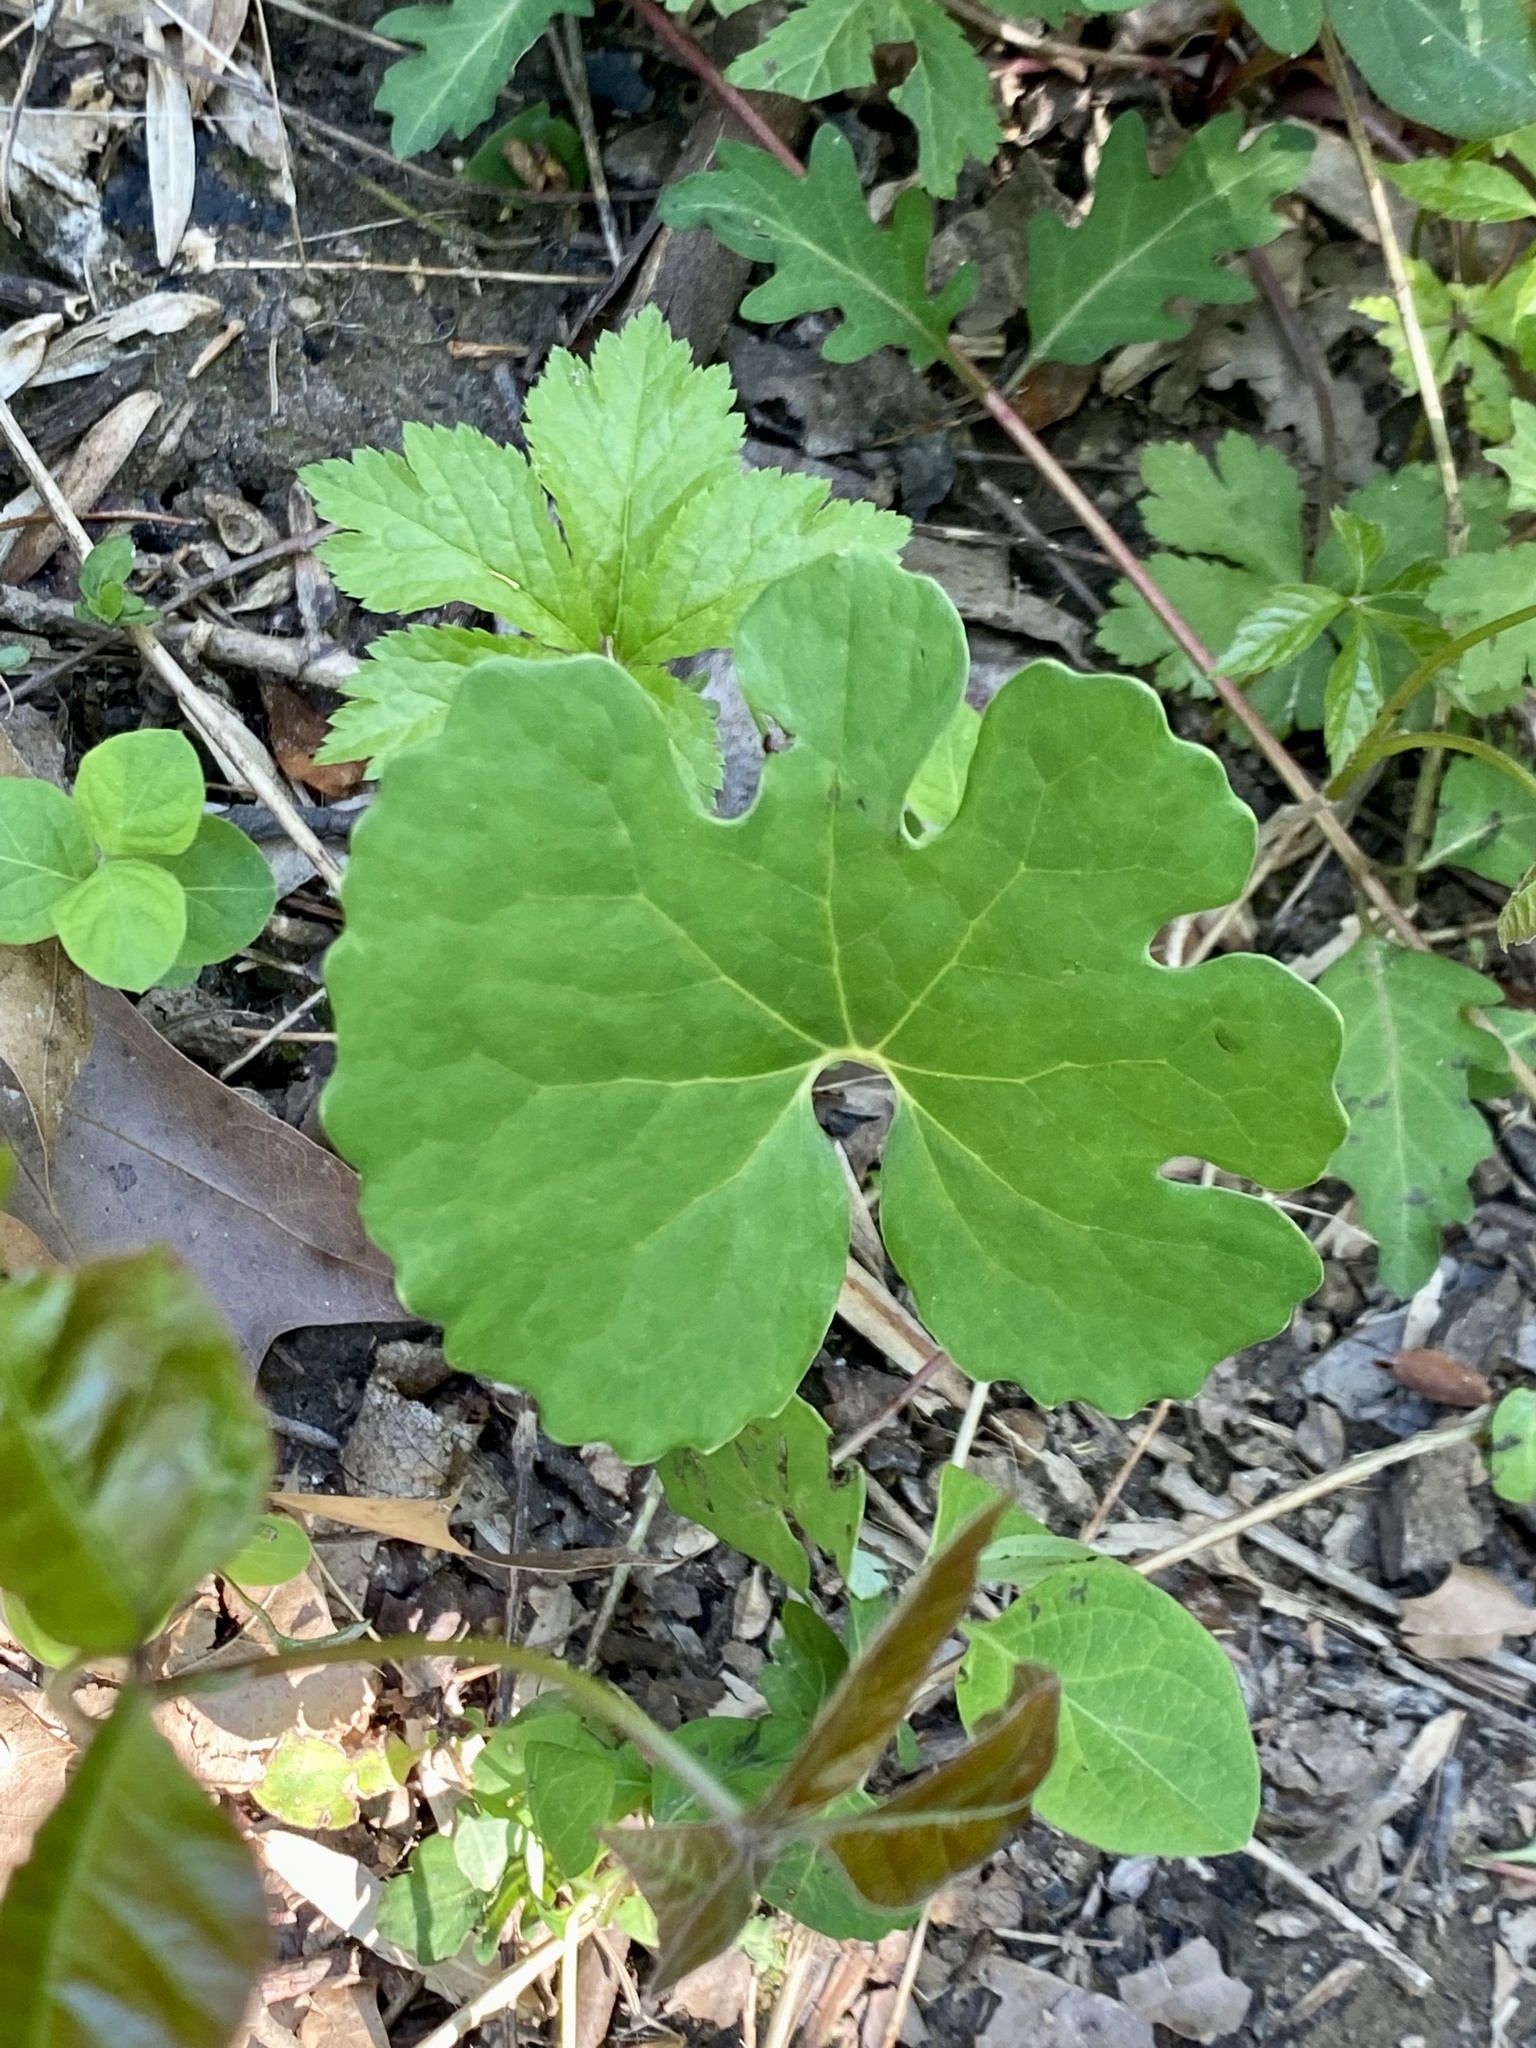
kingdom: Plantae
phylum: Tracheophyta
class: Magnoliopsida
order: Ranunculales
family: Papaveraceae
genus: Sanguinaria
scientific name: Sanguinaria canadensis
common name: Bloodroot
